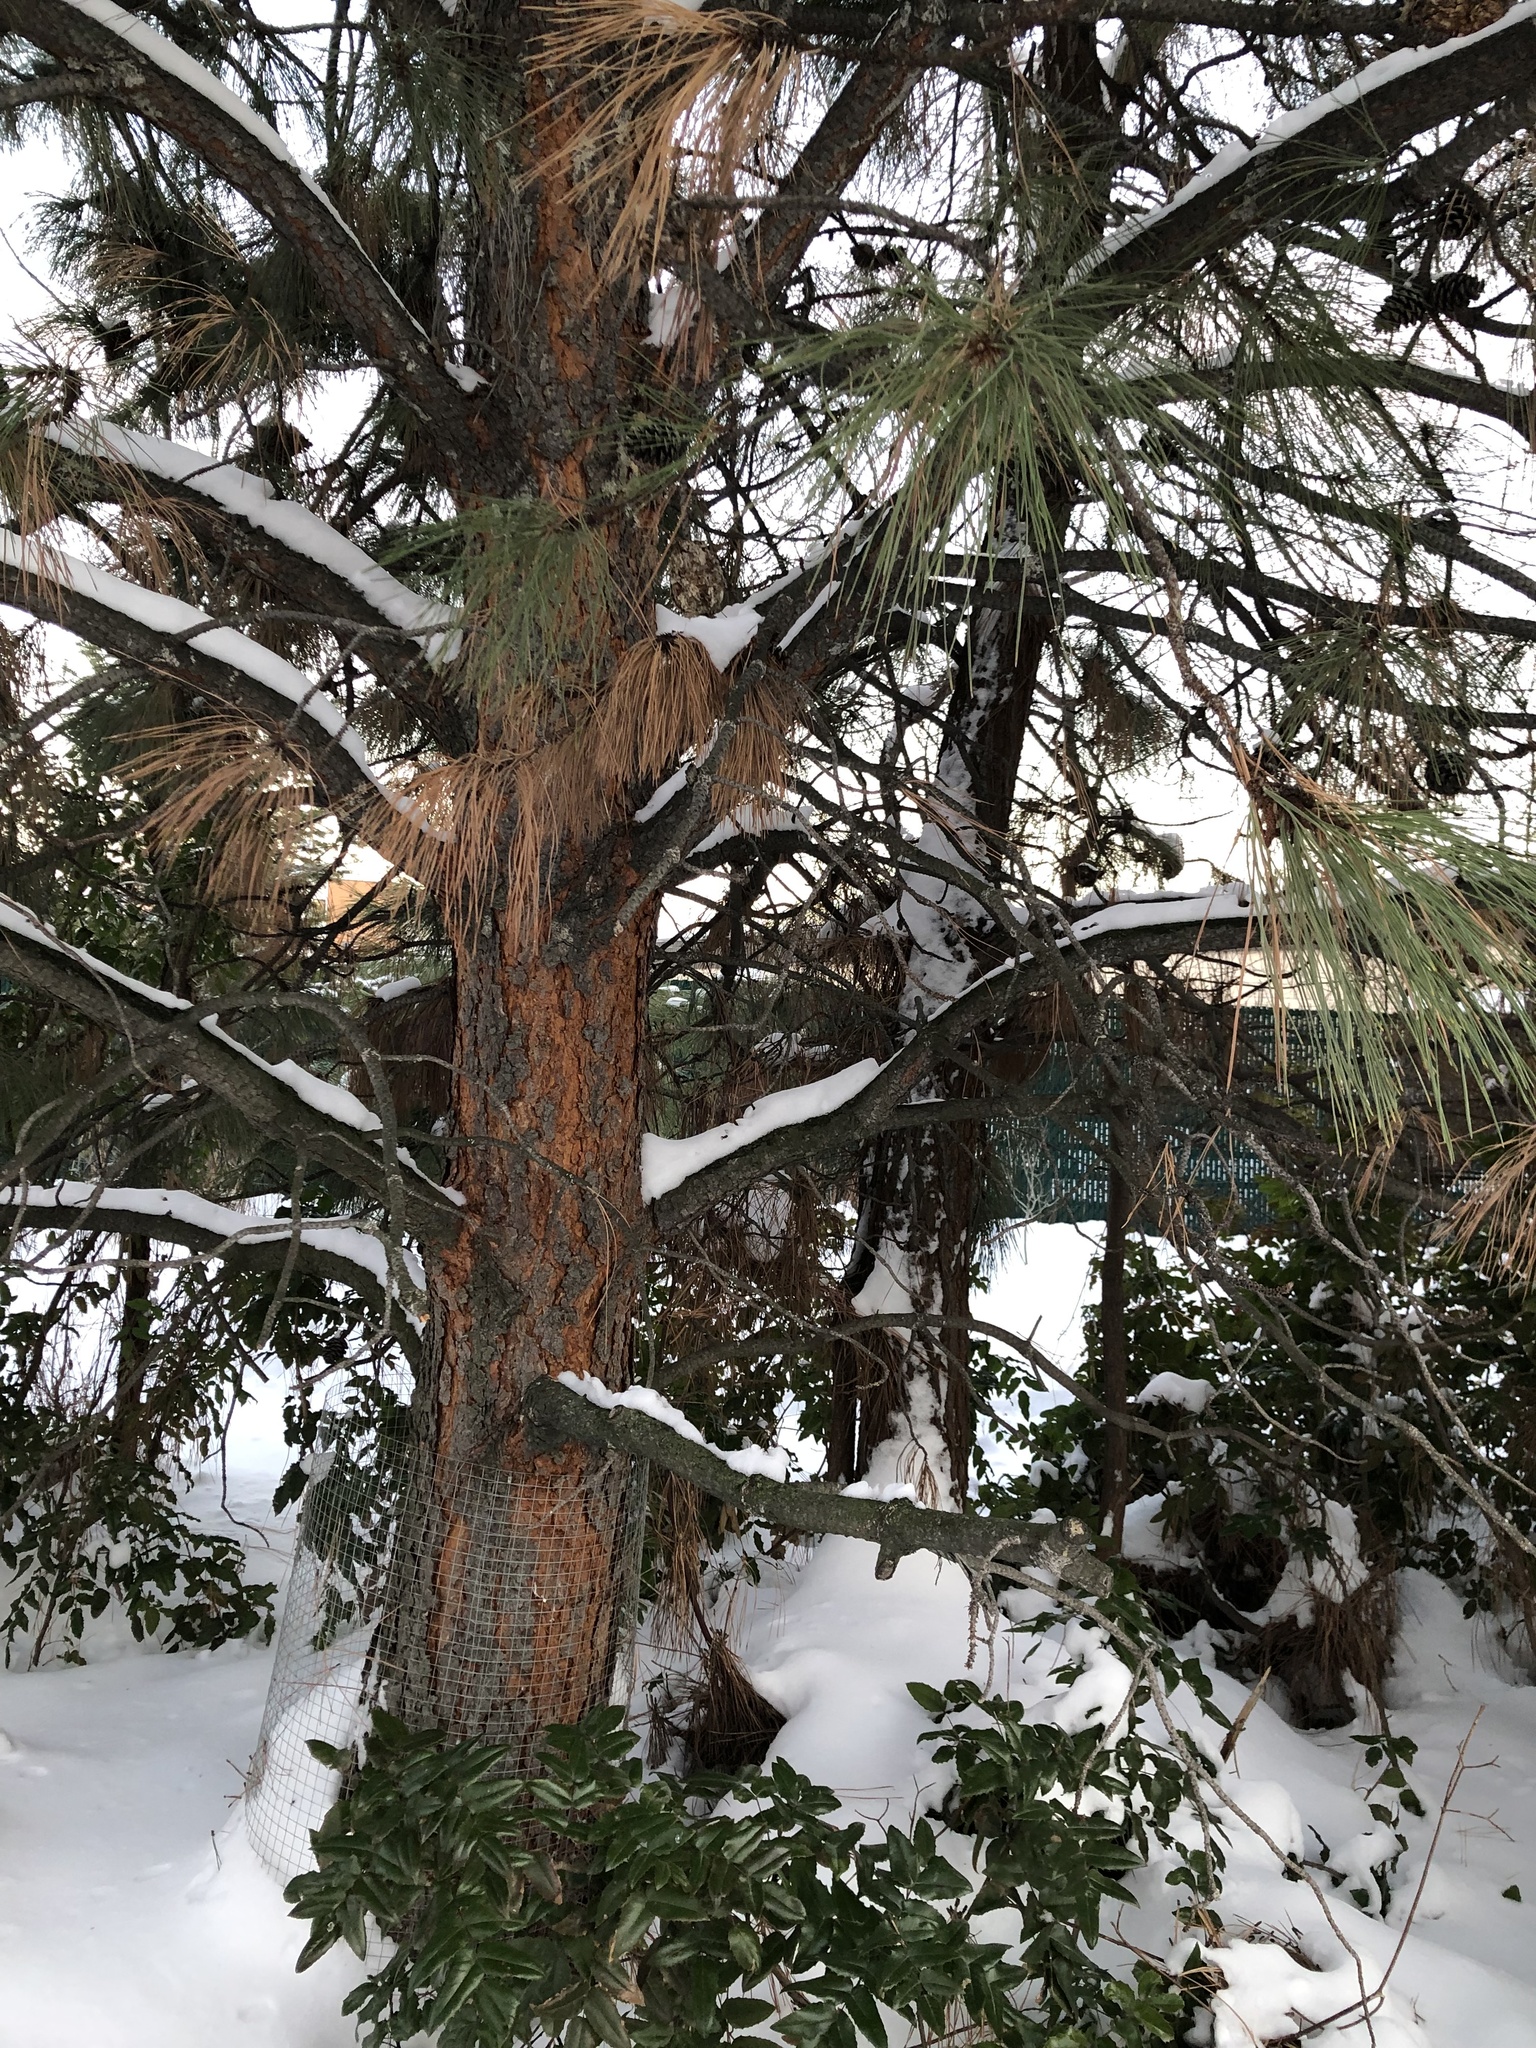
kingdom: Plantae
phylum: Tracheophyta
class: Pinopsida
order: Pinales
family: Pinaceae
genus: Pinus
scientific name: Pinus ponderosa
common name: Western yellow-pine
